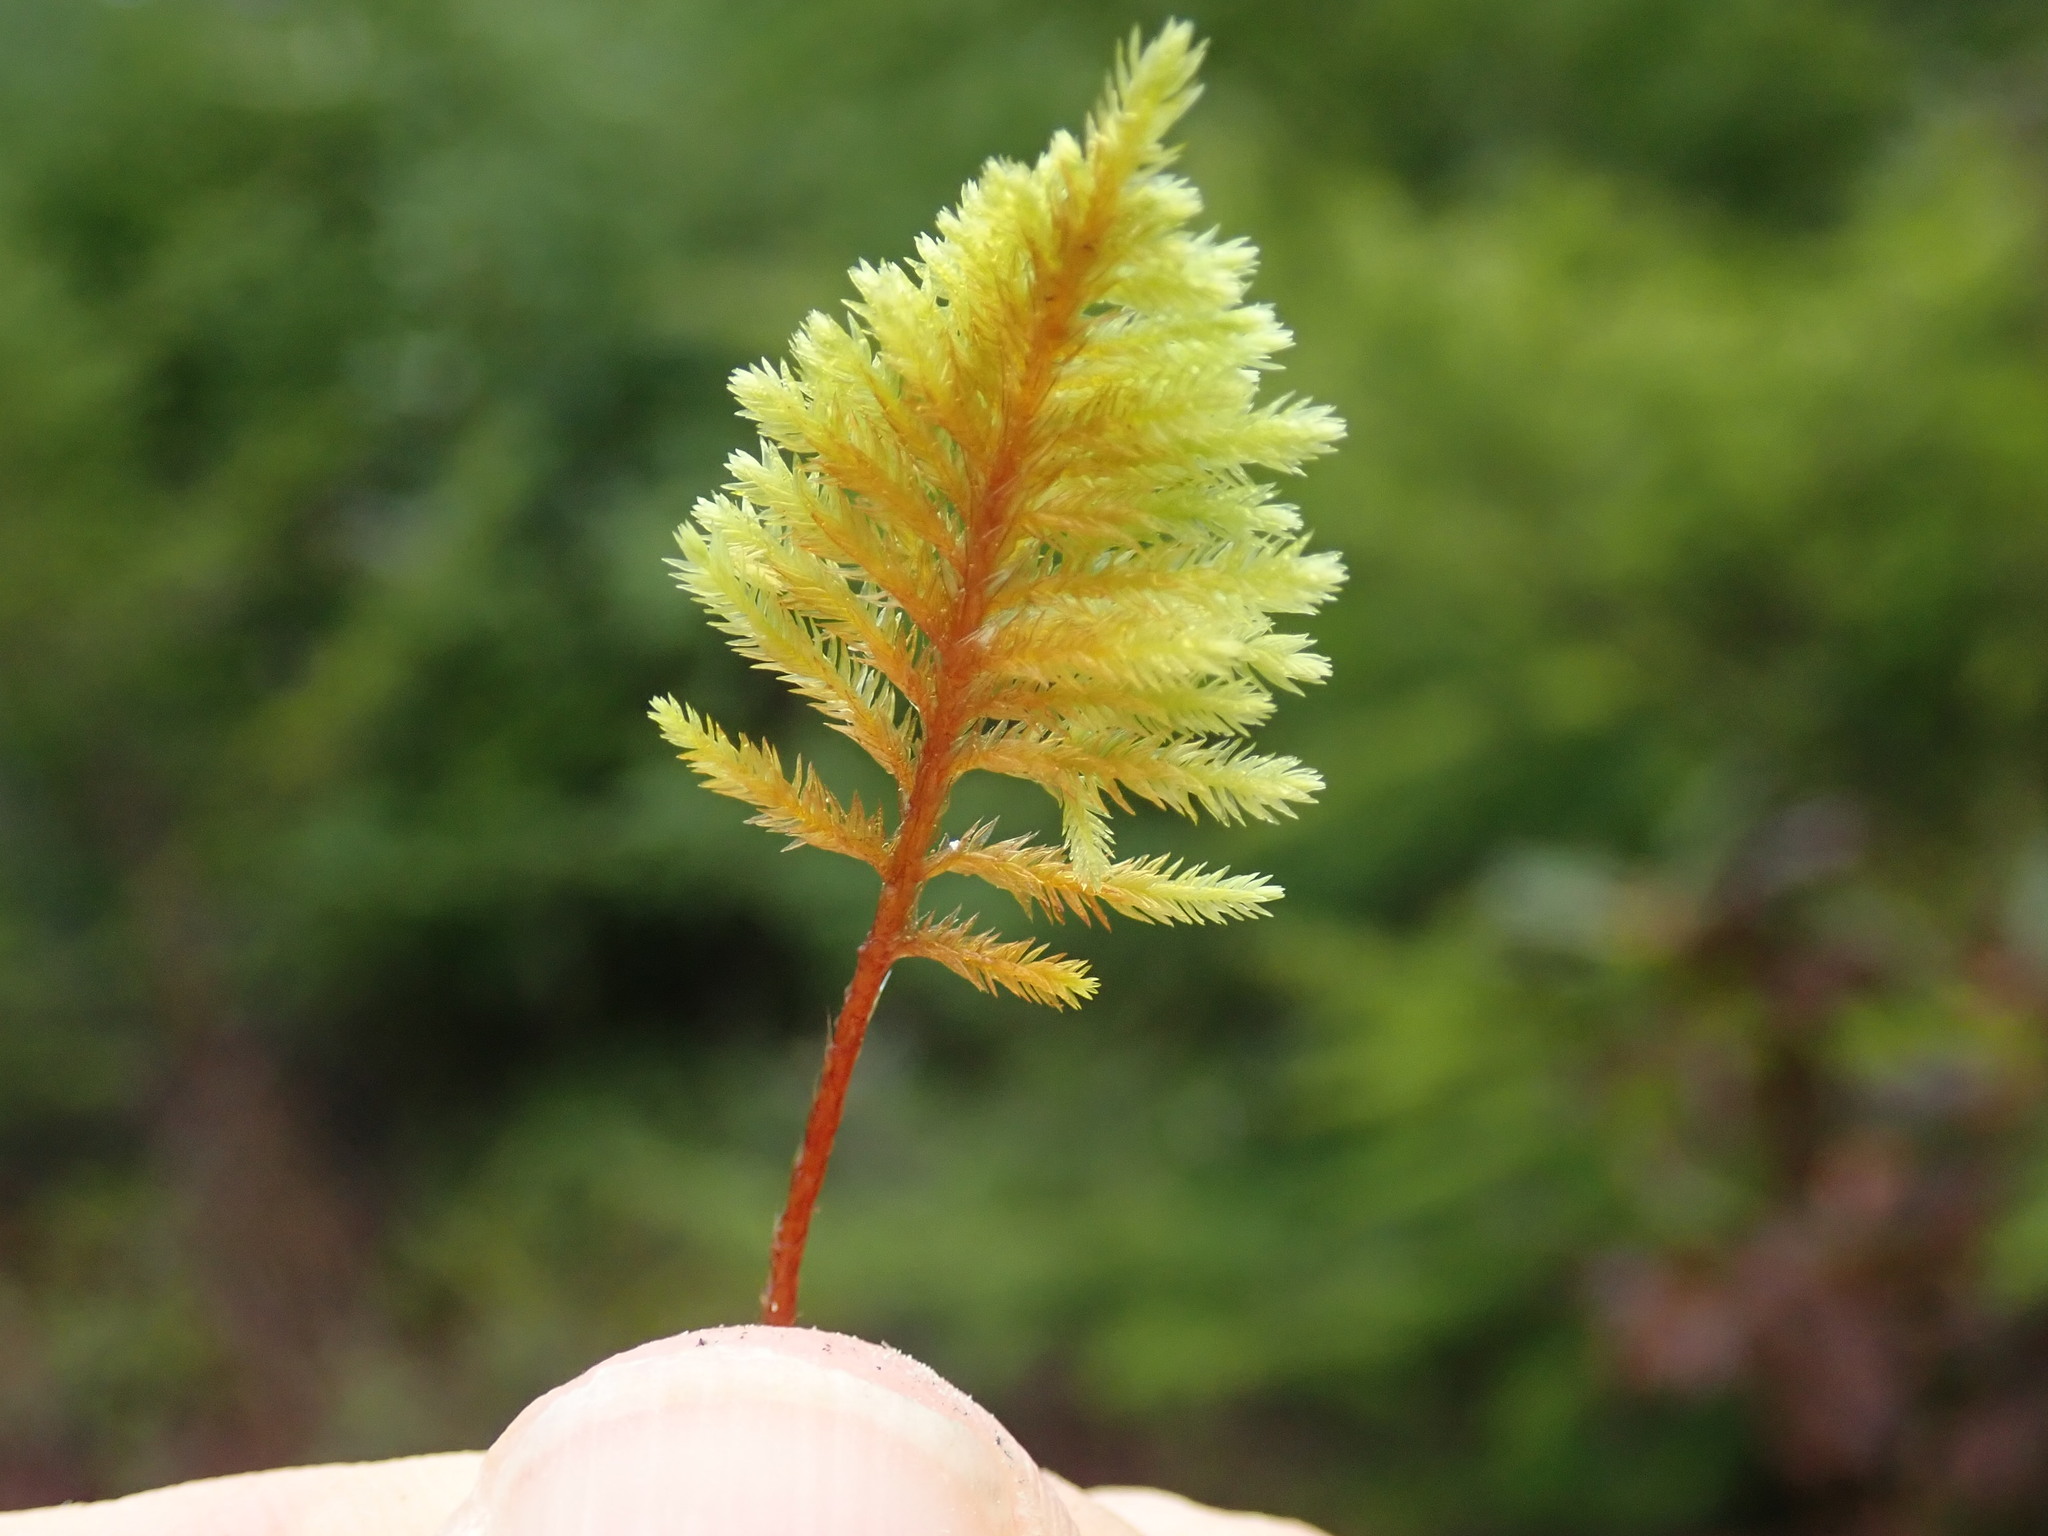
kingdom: Plantae
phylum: Bryophyta
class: Bryopsida
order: Hypnales
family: Cryphaeaceae
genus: Dendroalsia
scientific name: Dendroalsia abietina
